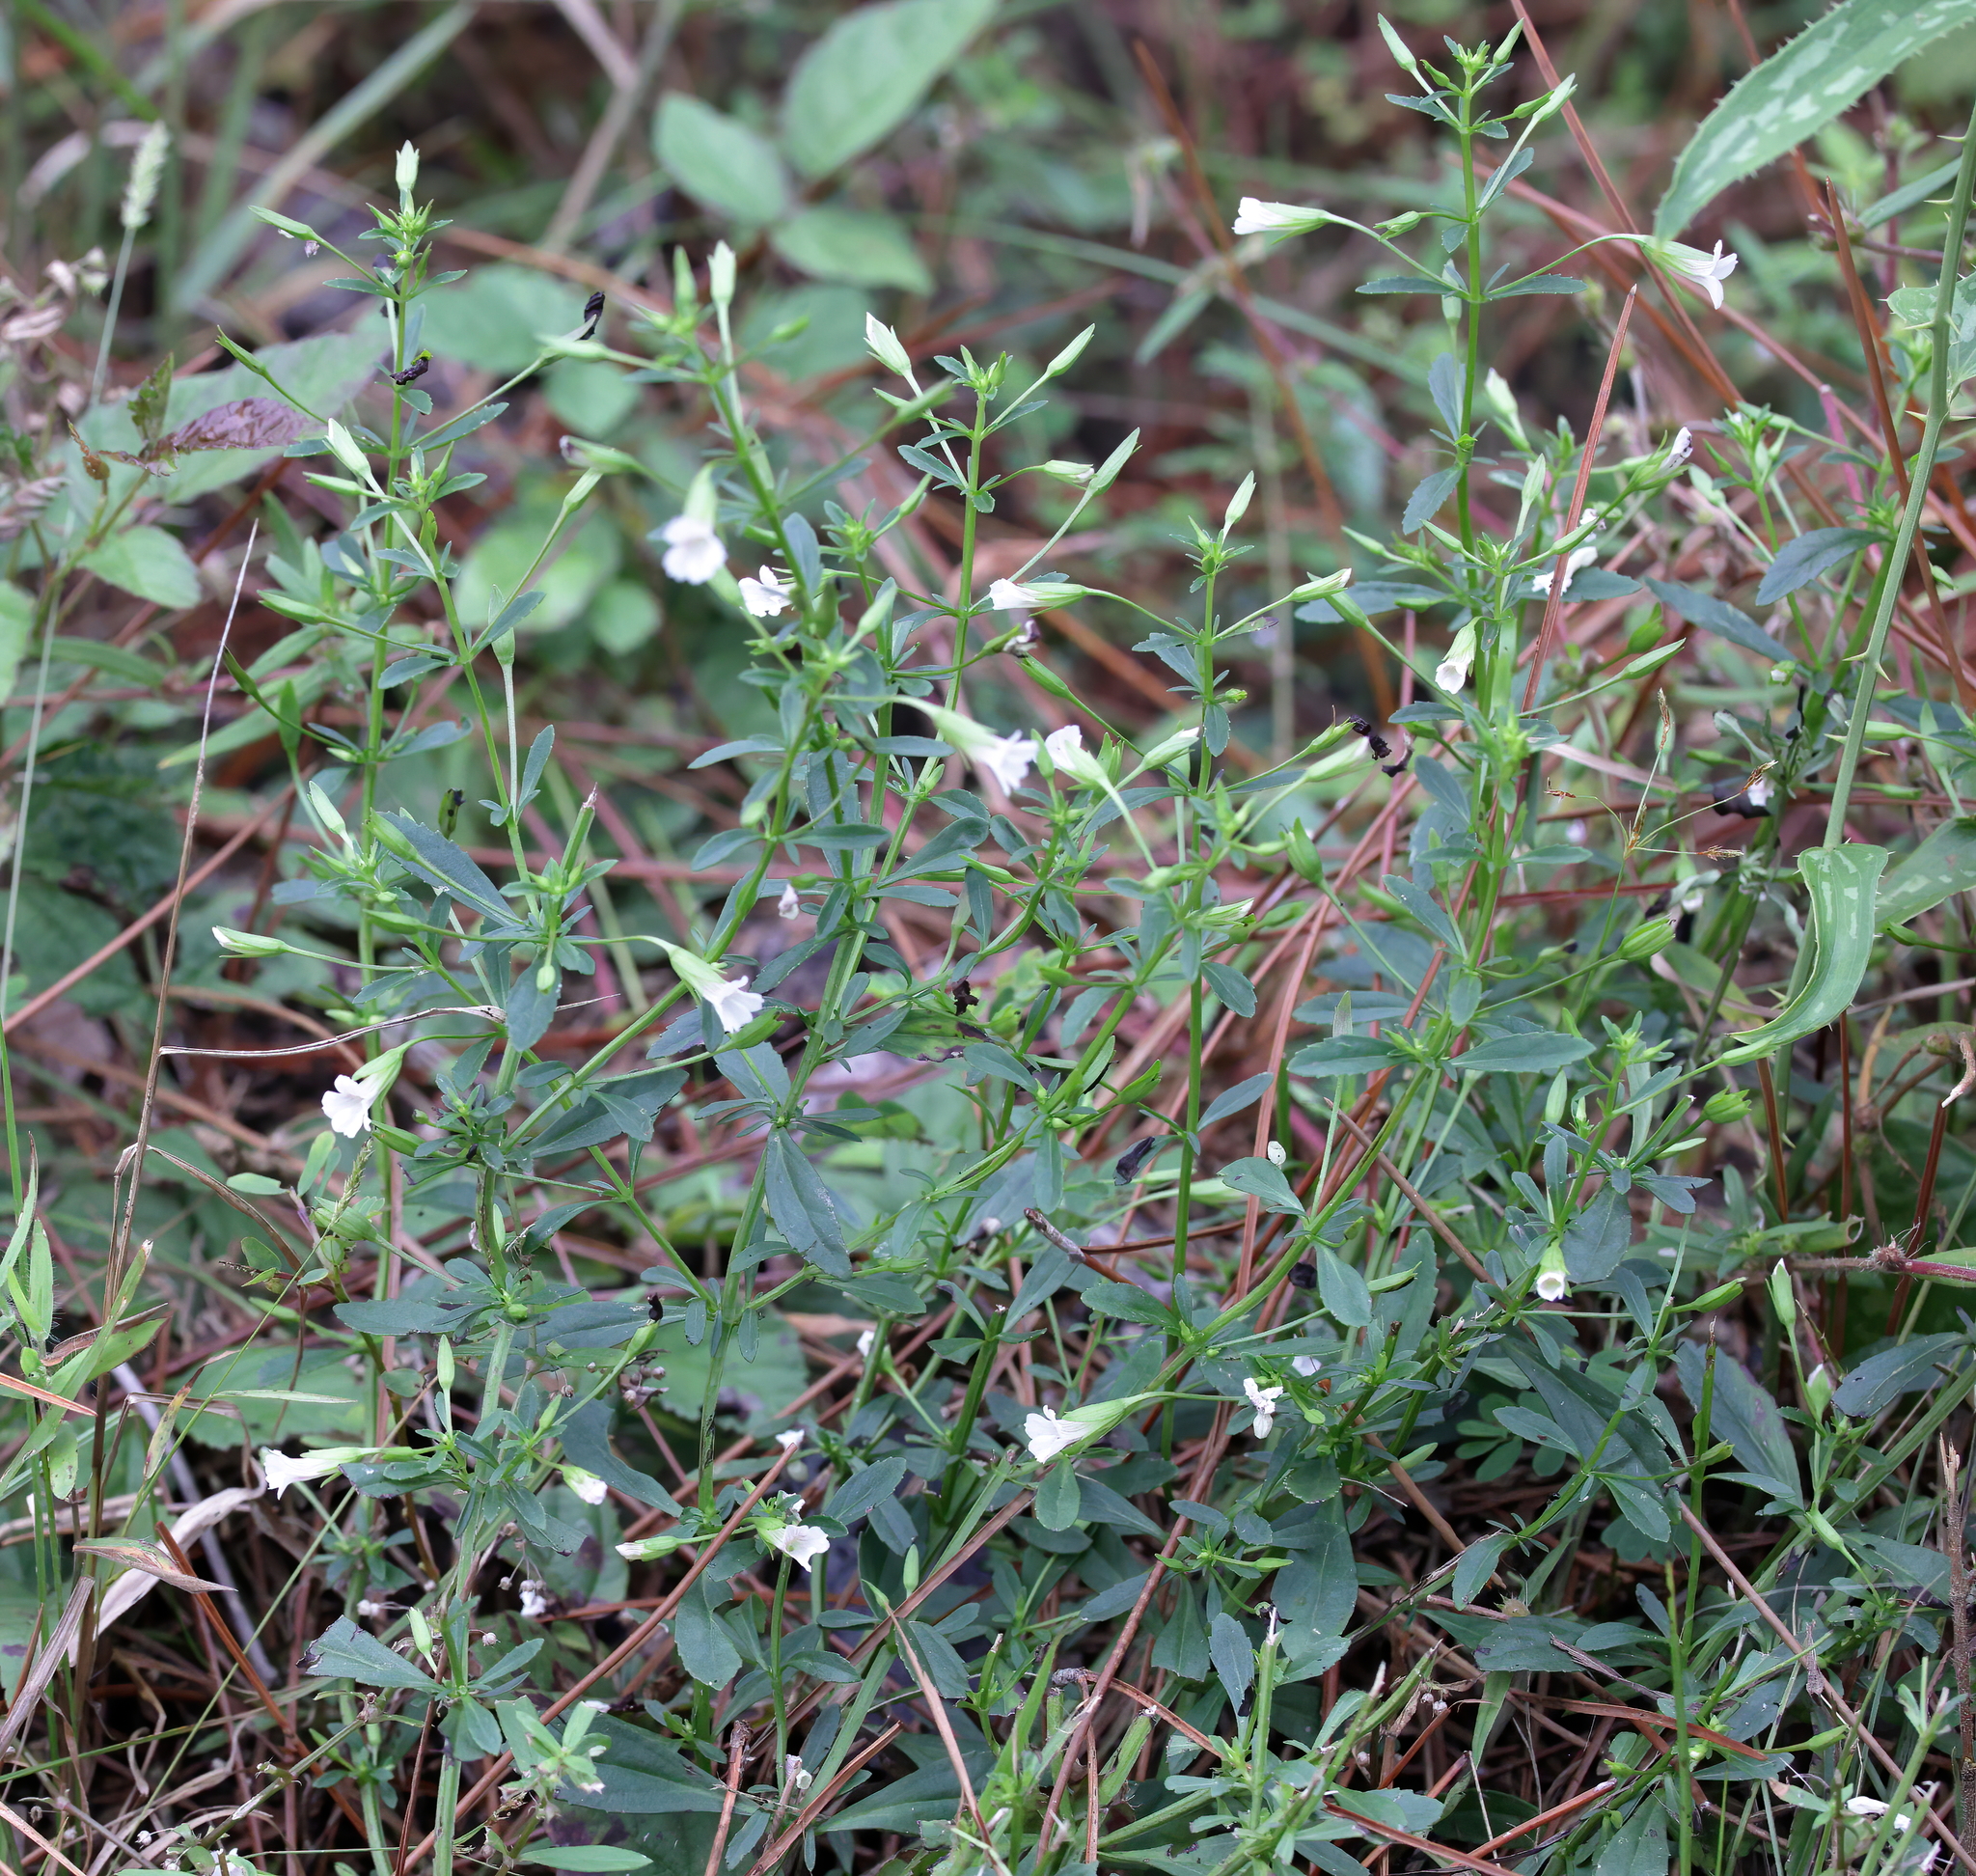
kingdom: Plantae
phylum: Tracheophyta
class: Magnoliopsida
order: Lamiales
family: Plantaginaceae
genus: Mecardonia
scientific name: Mecardonia acuminata
